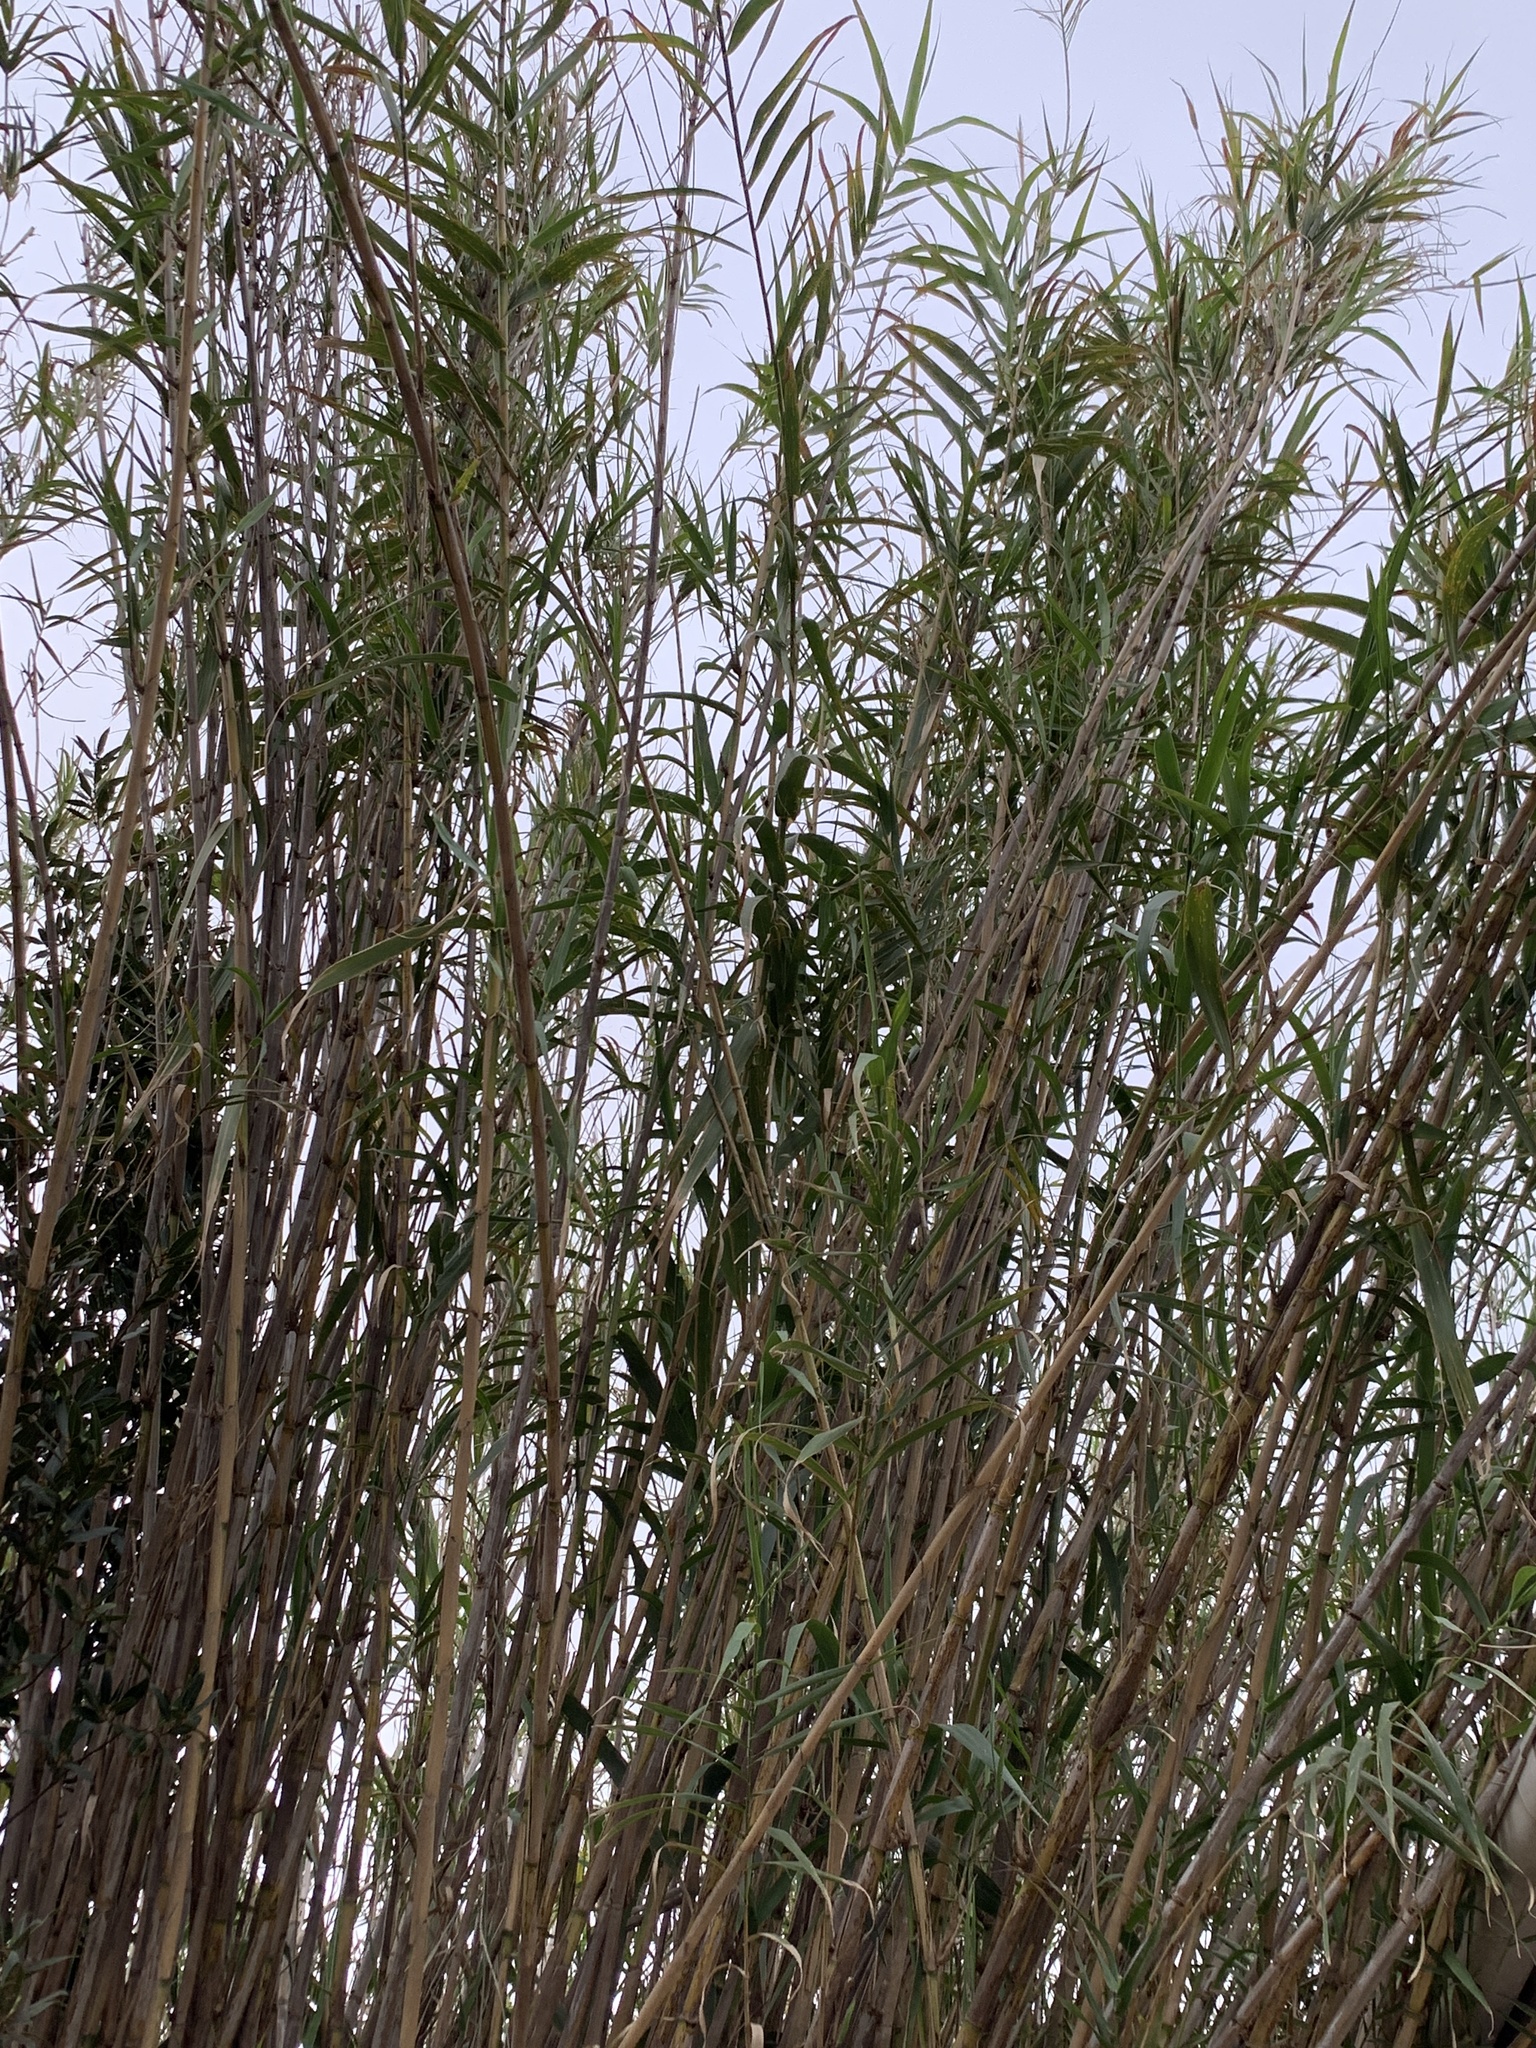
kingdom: Plantae
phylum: Tracheophyta
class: Liliopsida
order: Poales
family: Poaceae
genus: Arundo
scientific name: Arundo donax
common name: Giant reed
